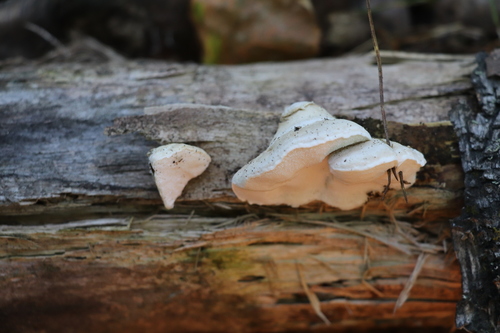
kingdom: Fungi
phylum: Basidiomycota
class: Agaricomycetes
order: Polyporales
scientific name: Polyporales
